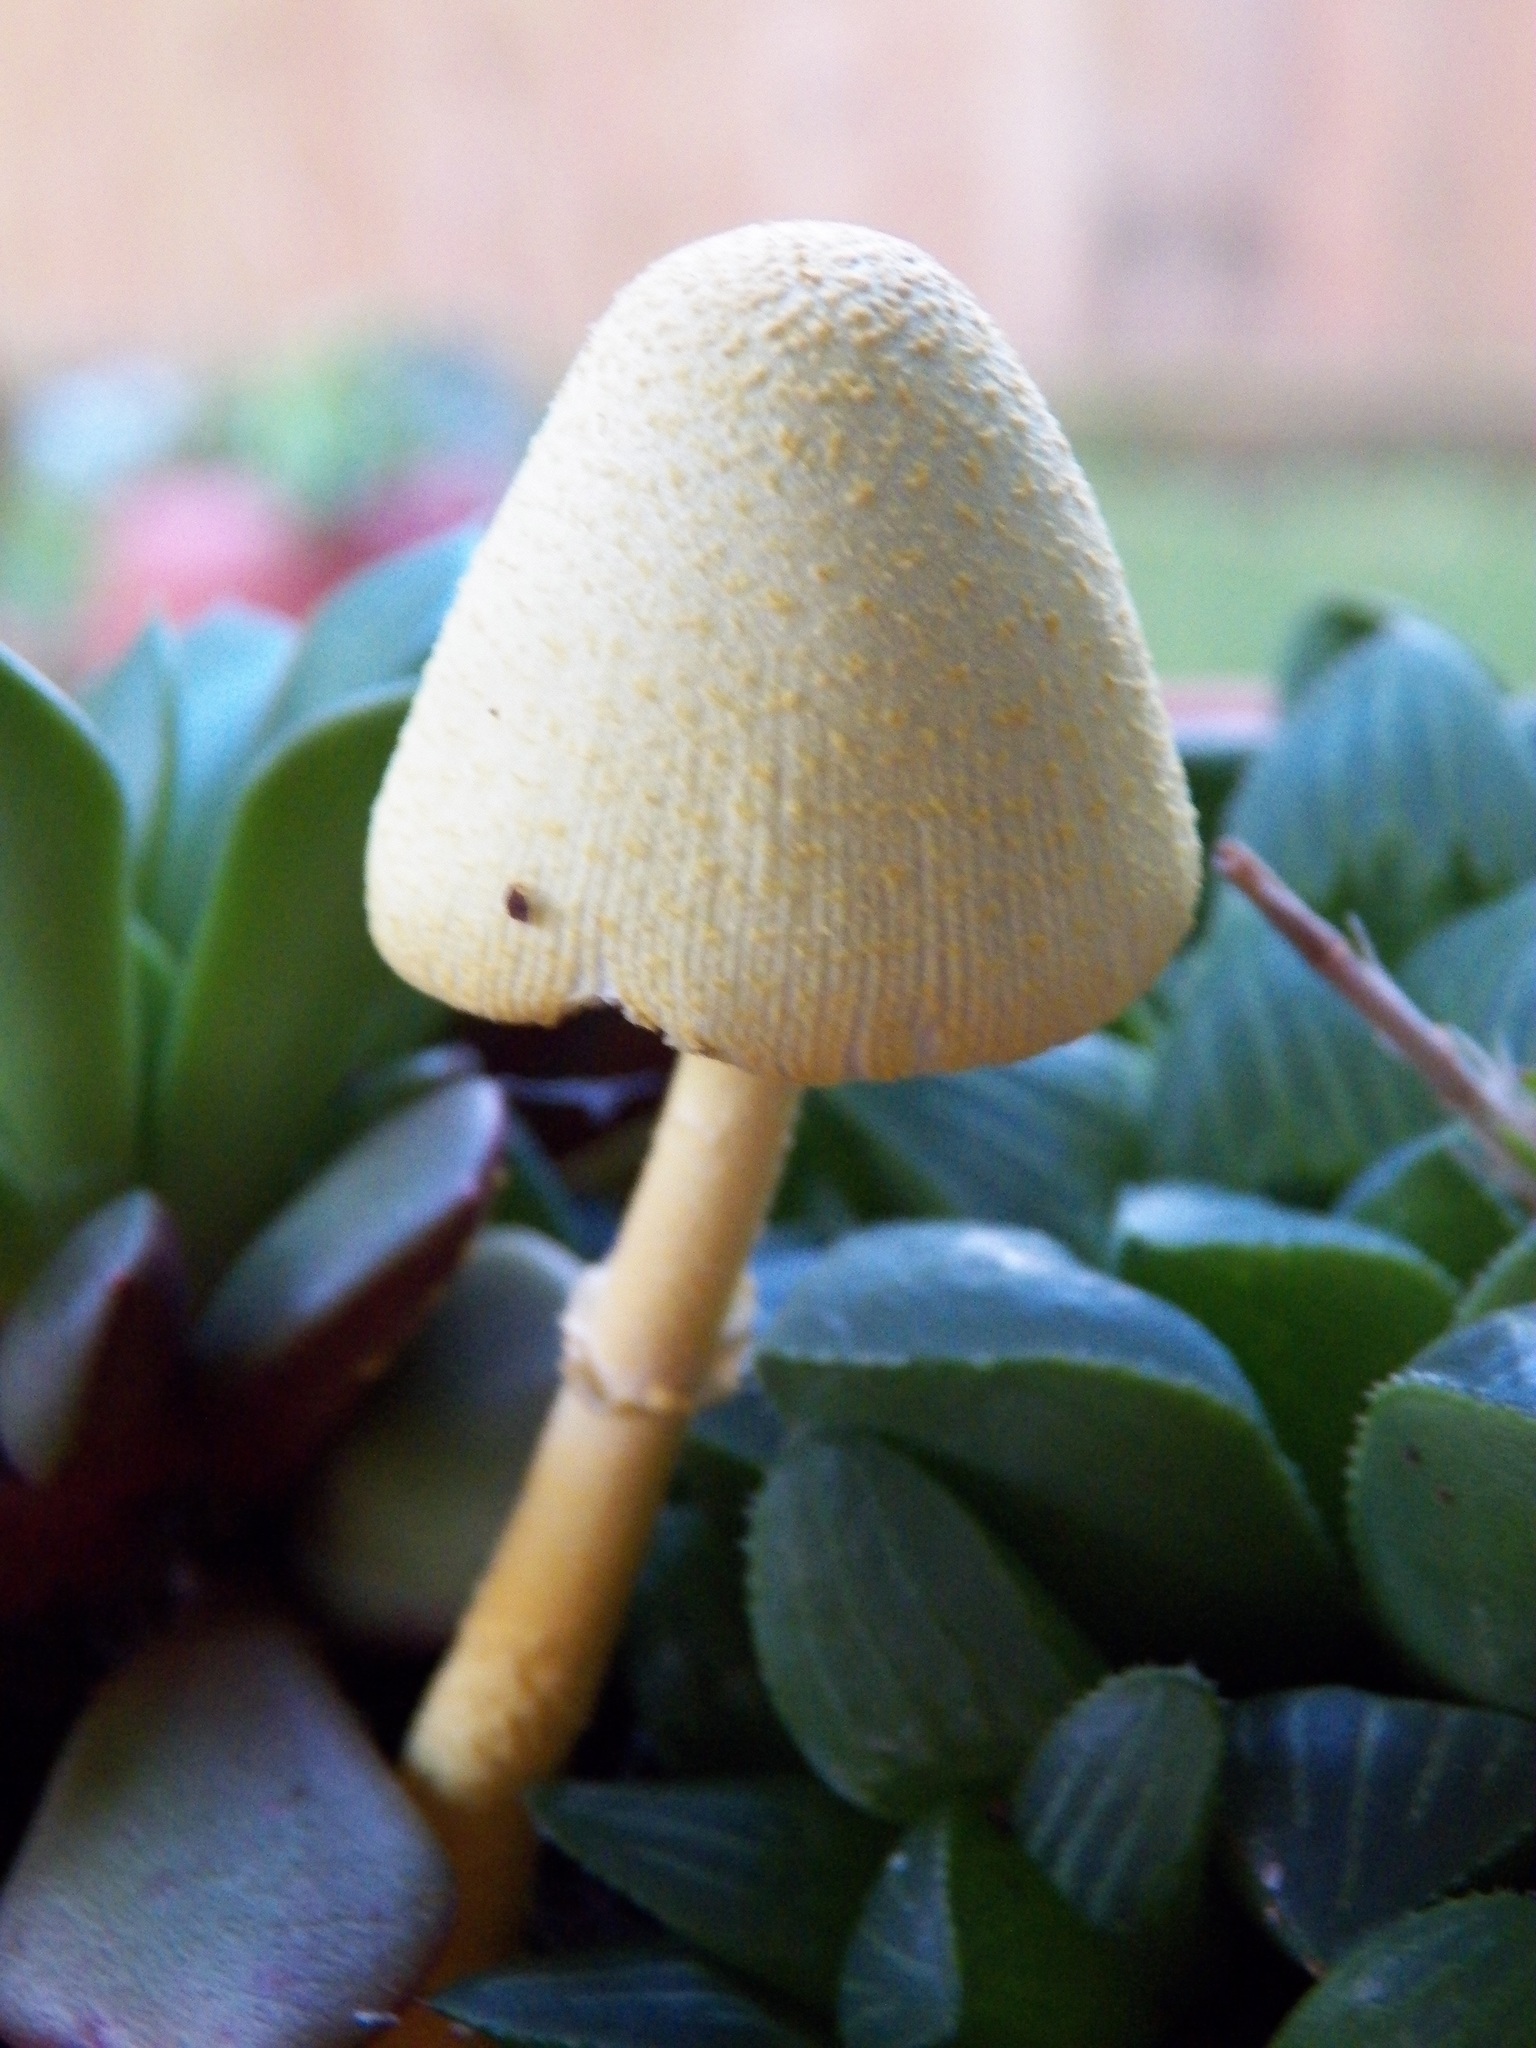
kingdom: Fungi
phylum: Basidiomycota
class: Agaricomycetes
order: Agaricales
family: Agaricaceae
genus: Leucocoprinus
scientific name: Leucocoprinus birnbaumii
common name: Plantpot dapperling
